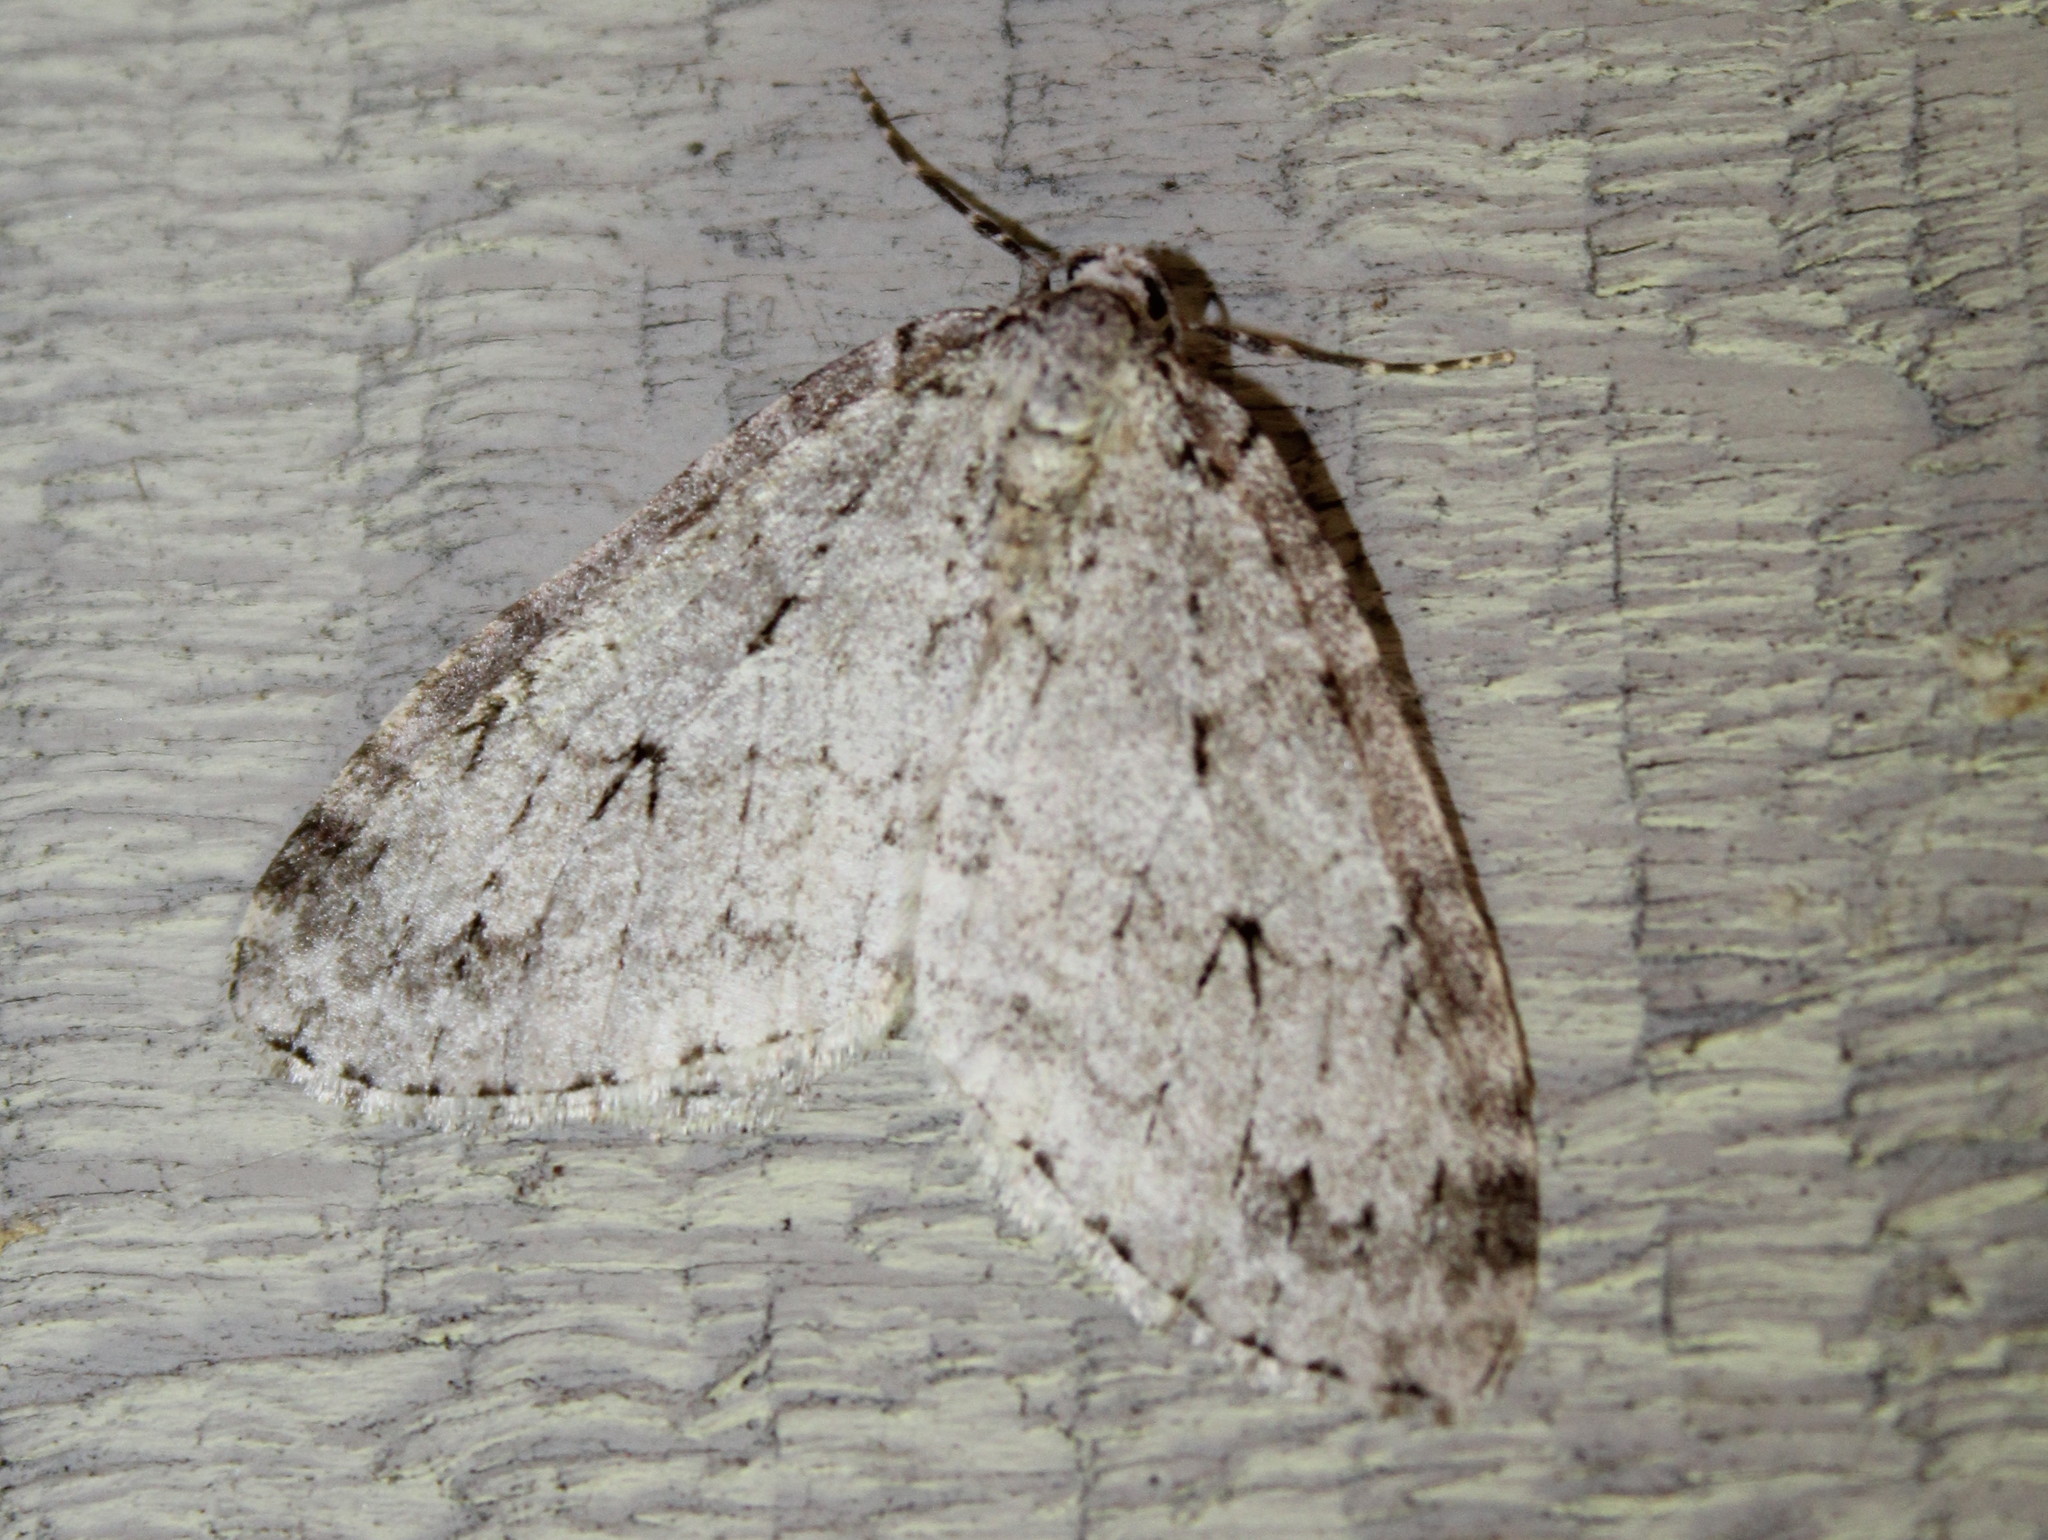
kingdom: Animalia
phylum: Arthropoda
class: Insecta
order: Lepidoptera
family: Geometridae
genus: Epirrita
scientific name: Epirrita autumnata
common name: Autumnal moth
